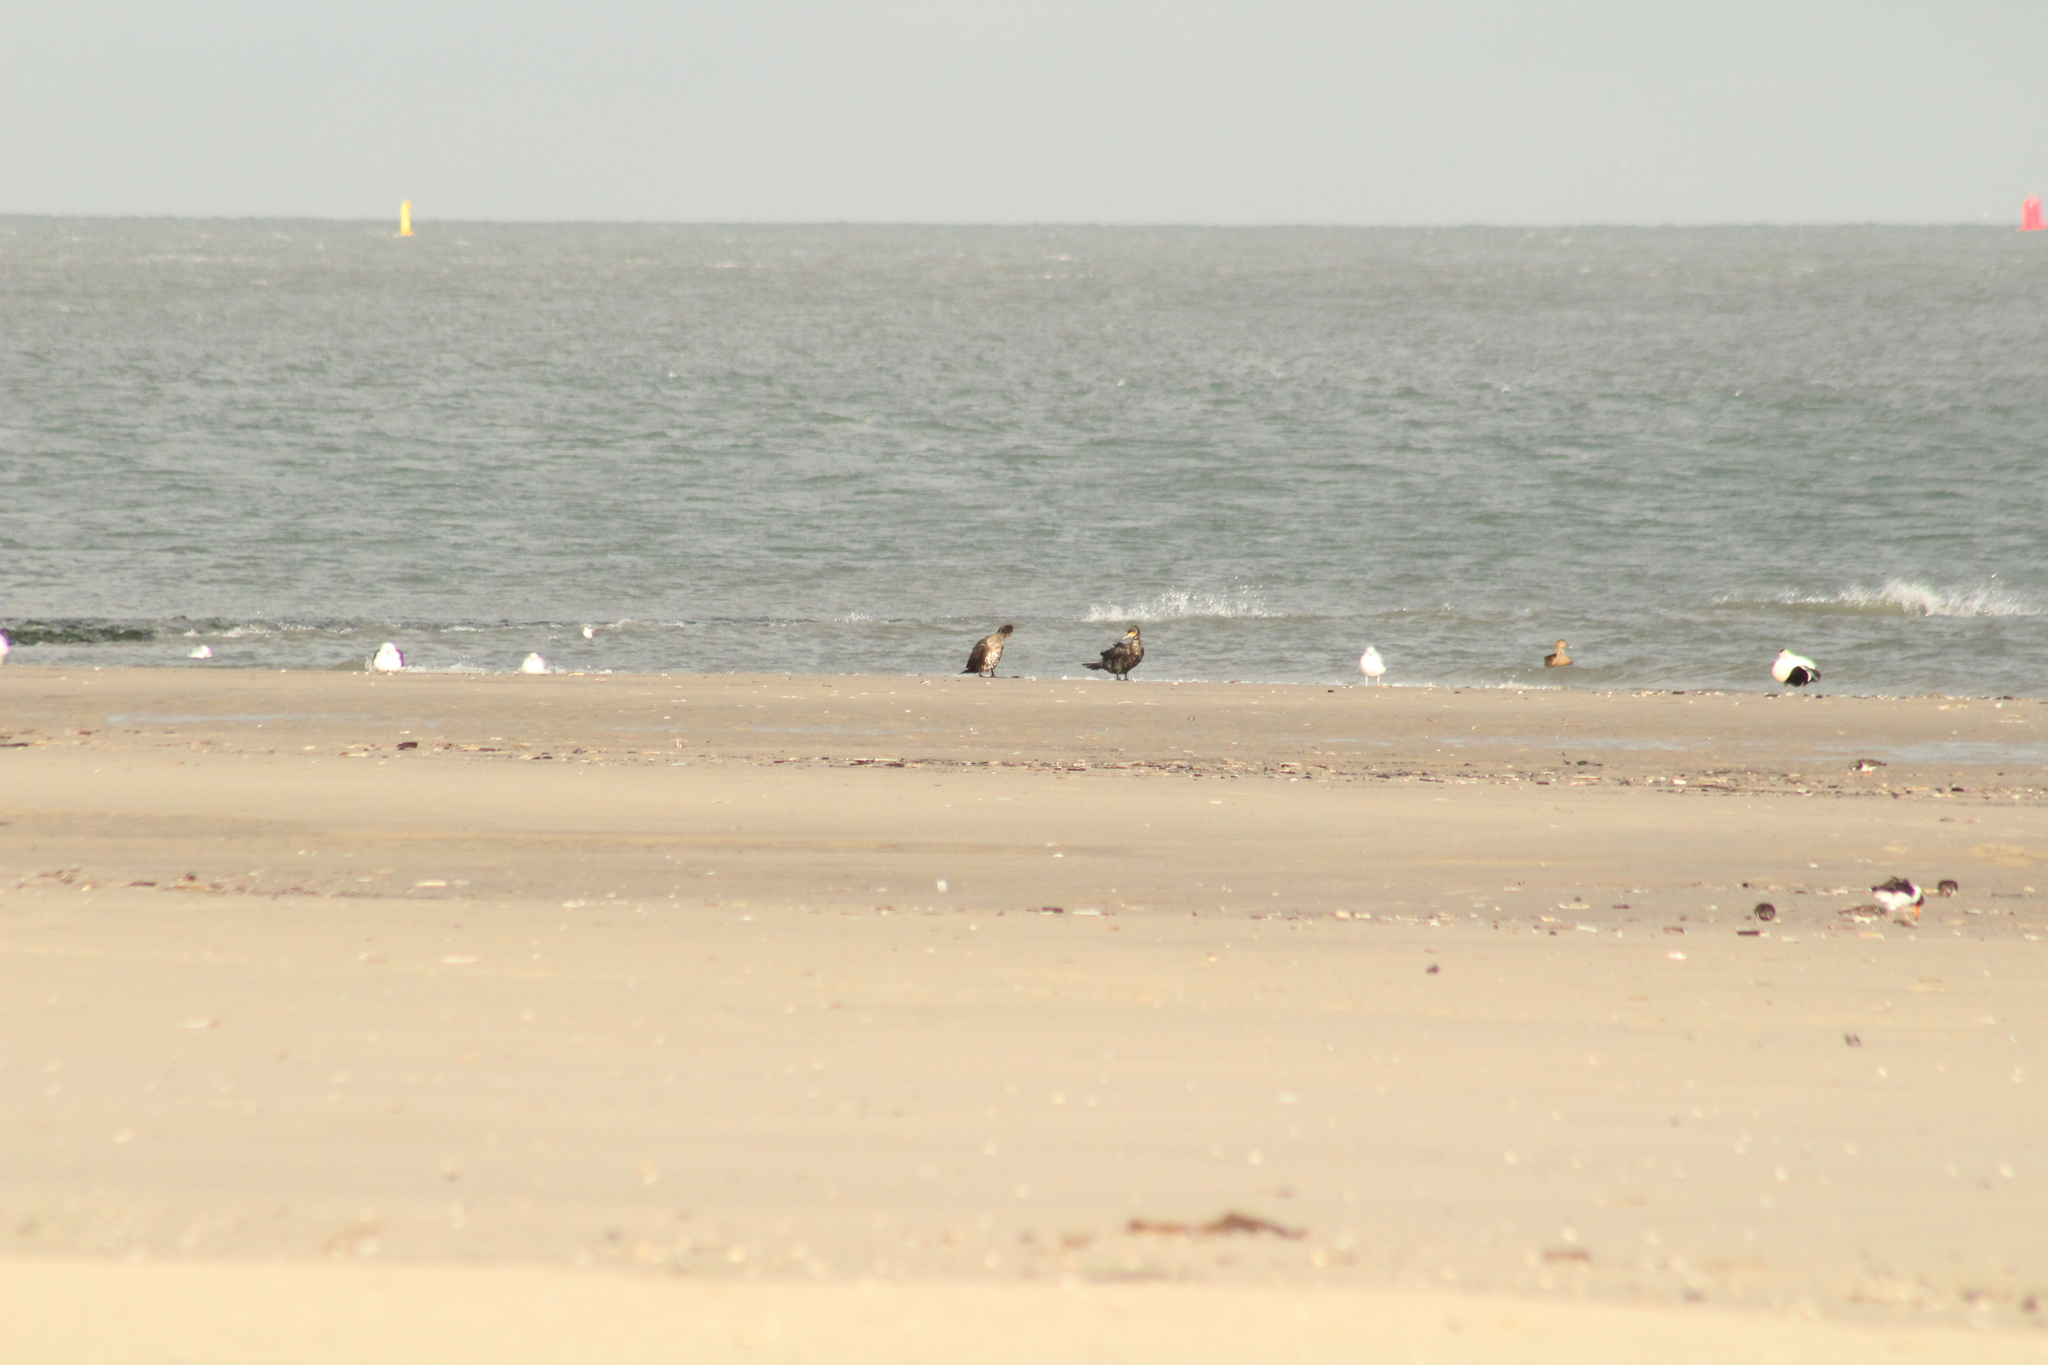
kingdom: Animalia
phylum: Chordata
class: Aves
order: Suliformes
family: Phalacrocoracidae
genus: Phalacrocorax
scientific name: Phalacrocorax carbo
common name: Great cormorant
